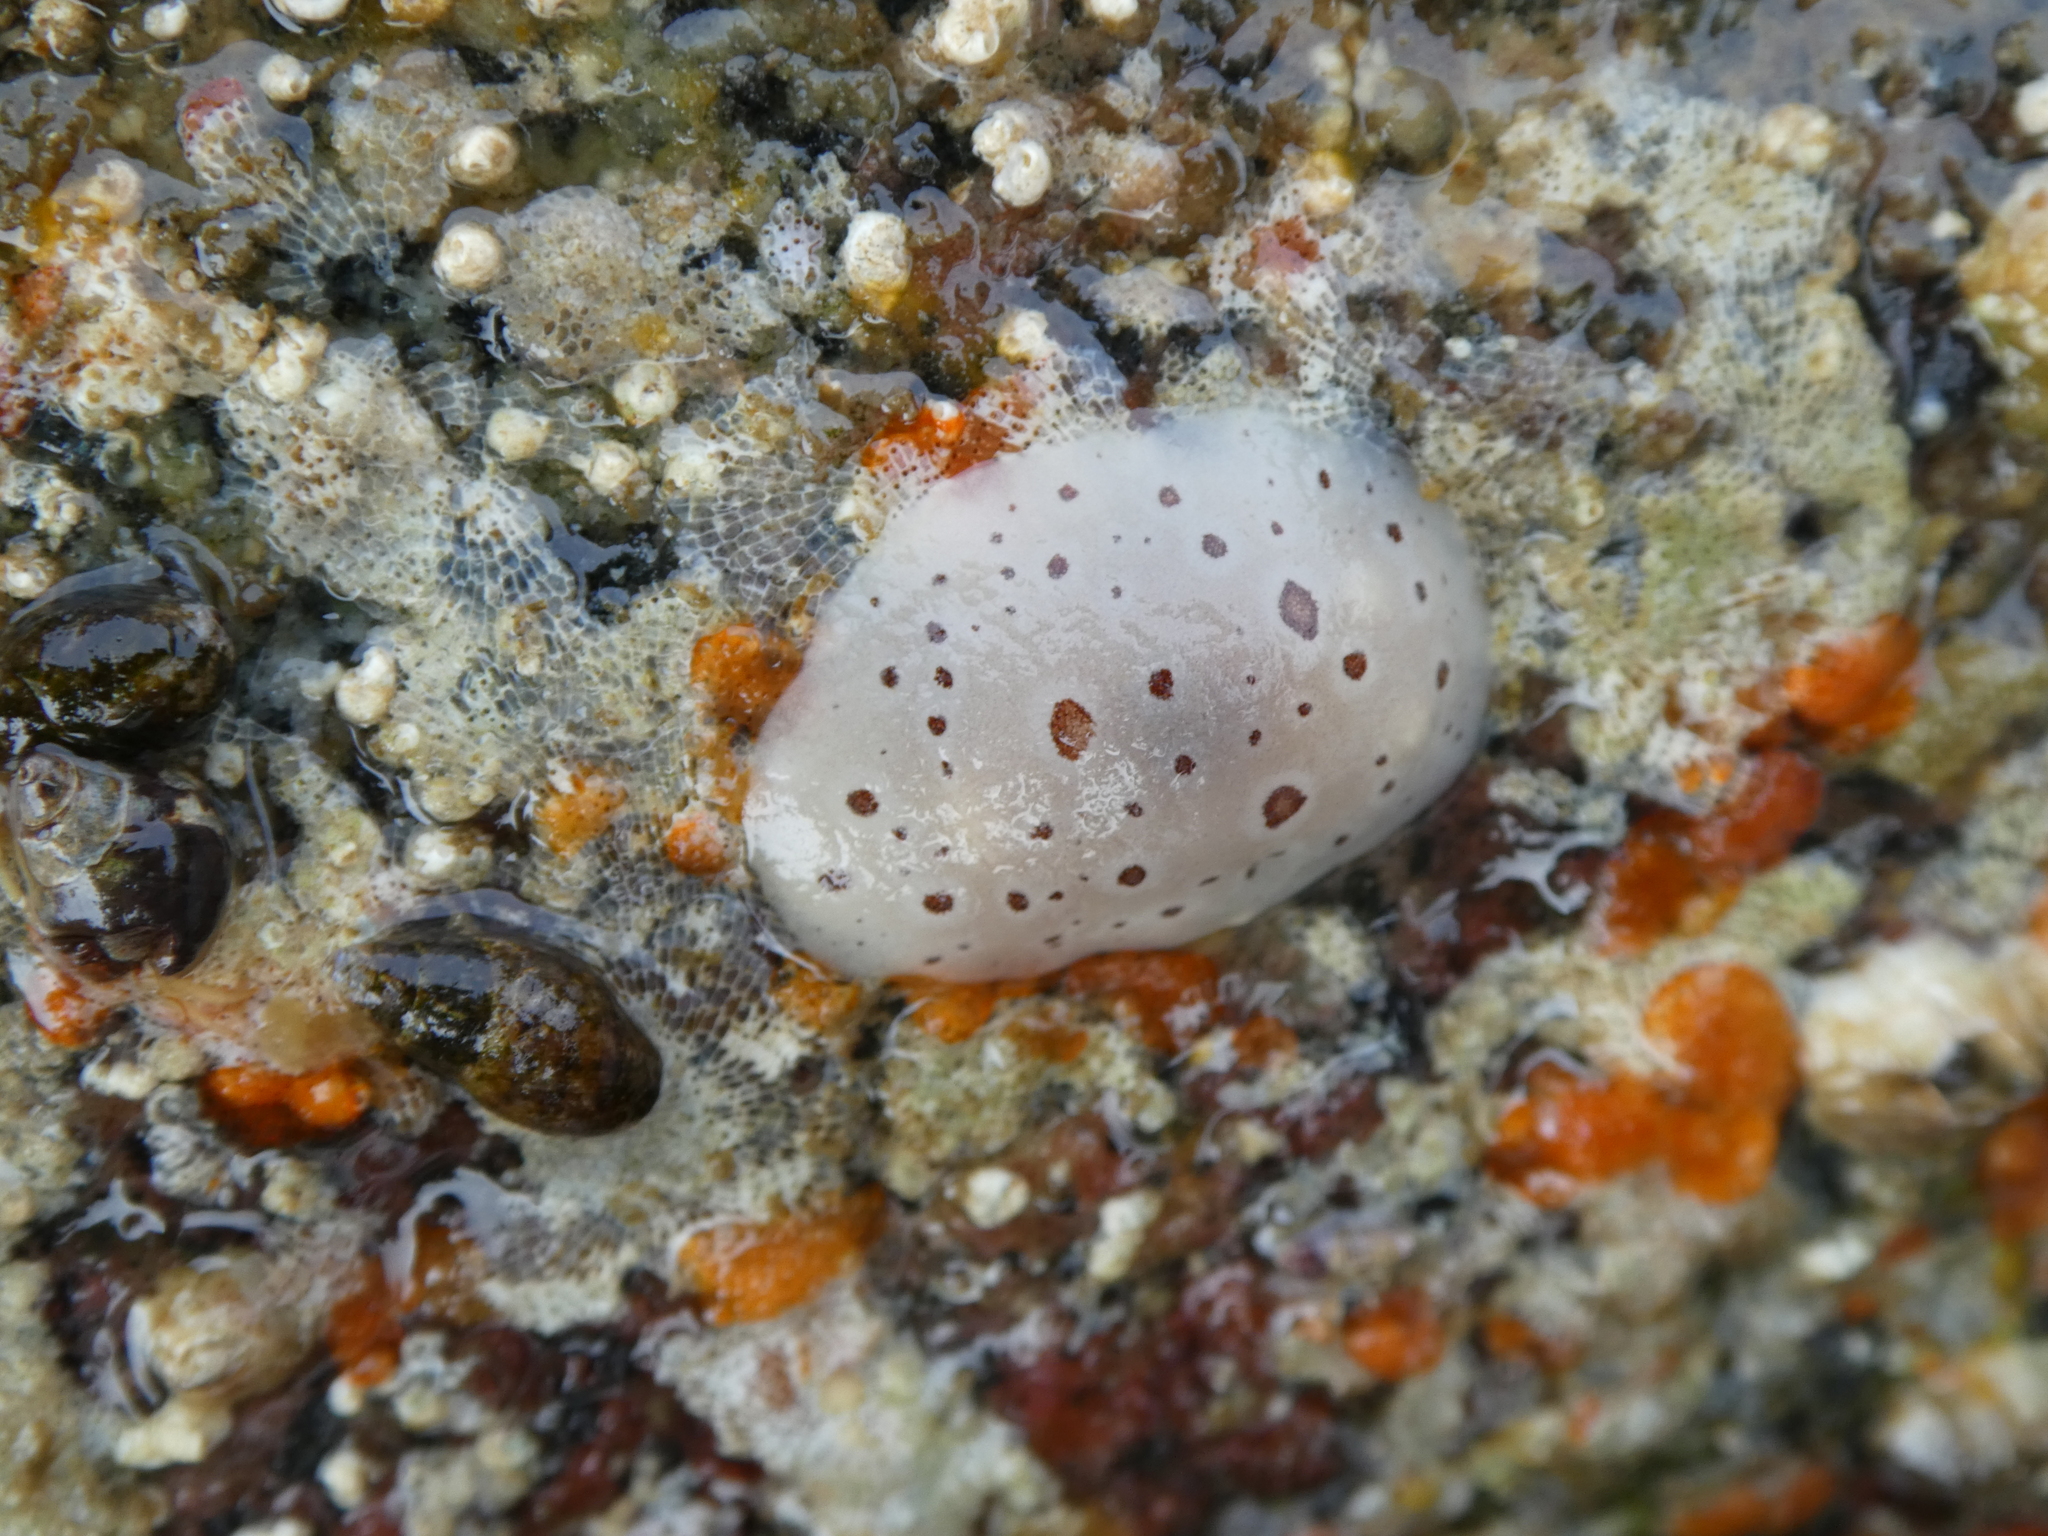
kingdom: Animalia
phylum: Mollusca
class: Gastropoda
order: Nudibranchia
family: Discodorididae
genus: Diaulula
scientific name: Diaulula odonoghuei
